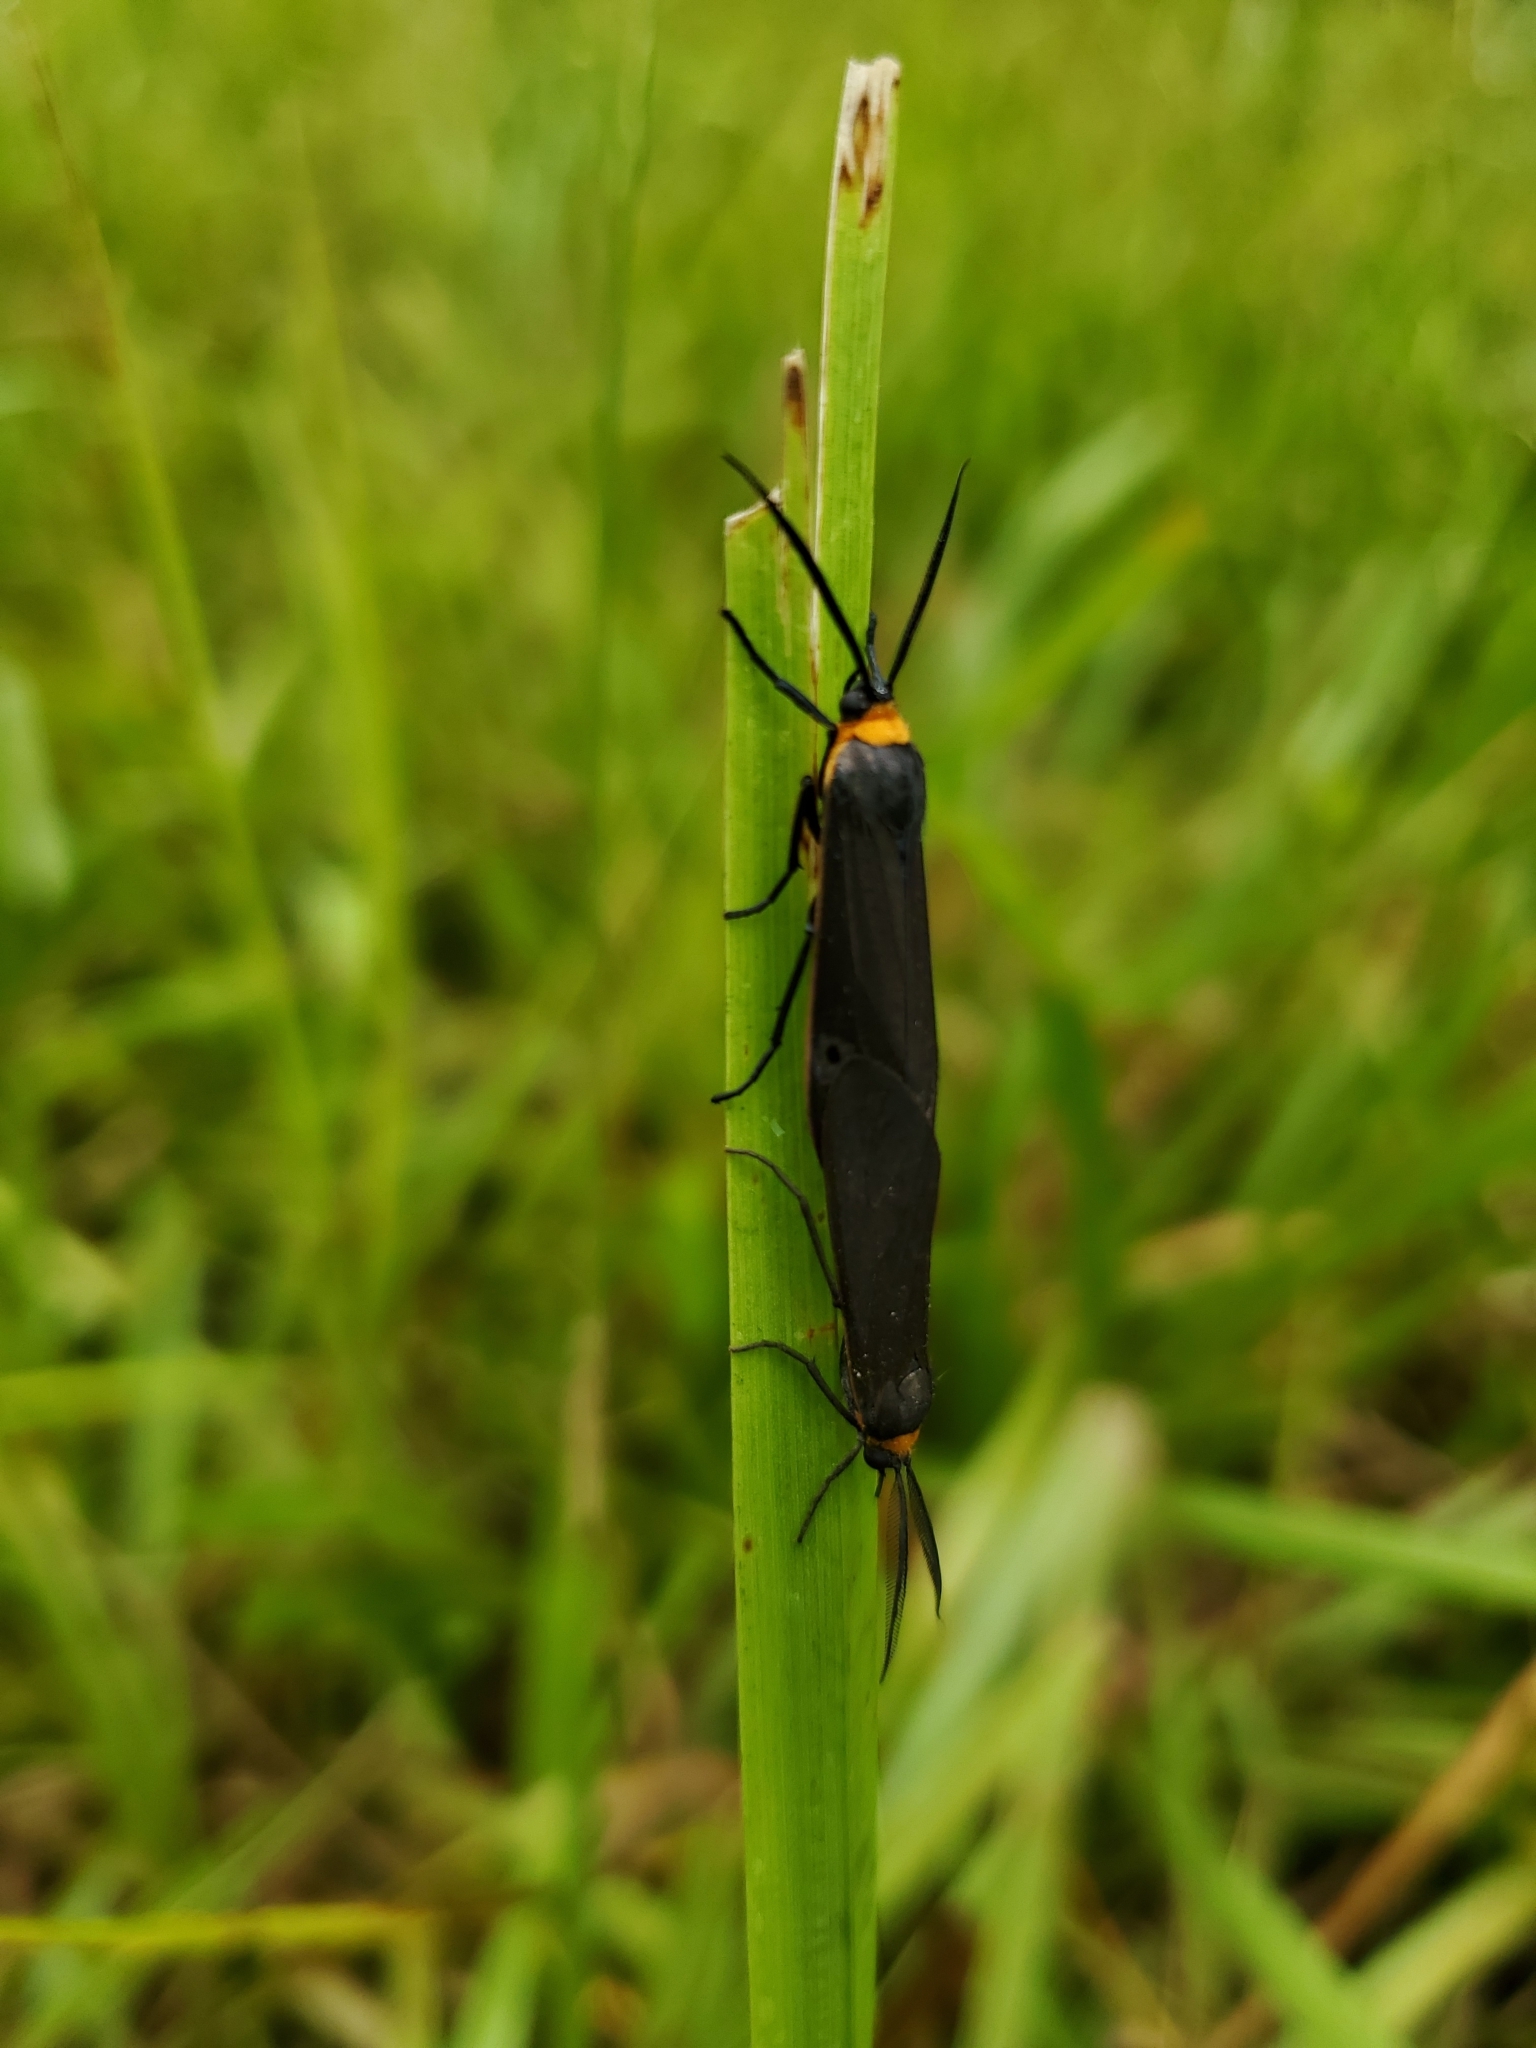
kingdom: Animalia
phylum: Arthropoda
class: Insecta
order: Lepidoptera
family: Erebidae
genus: Cisseps
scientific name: Cisseps fulvicollis
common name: Yellow-collared scape moth
